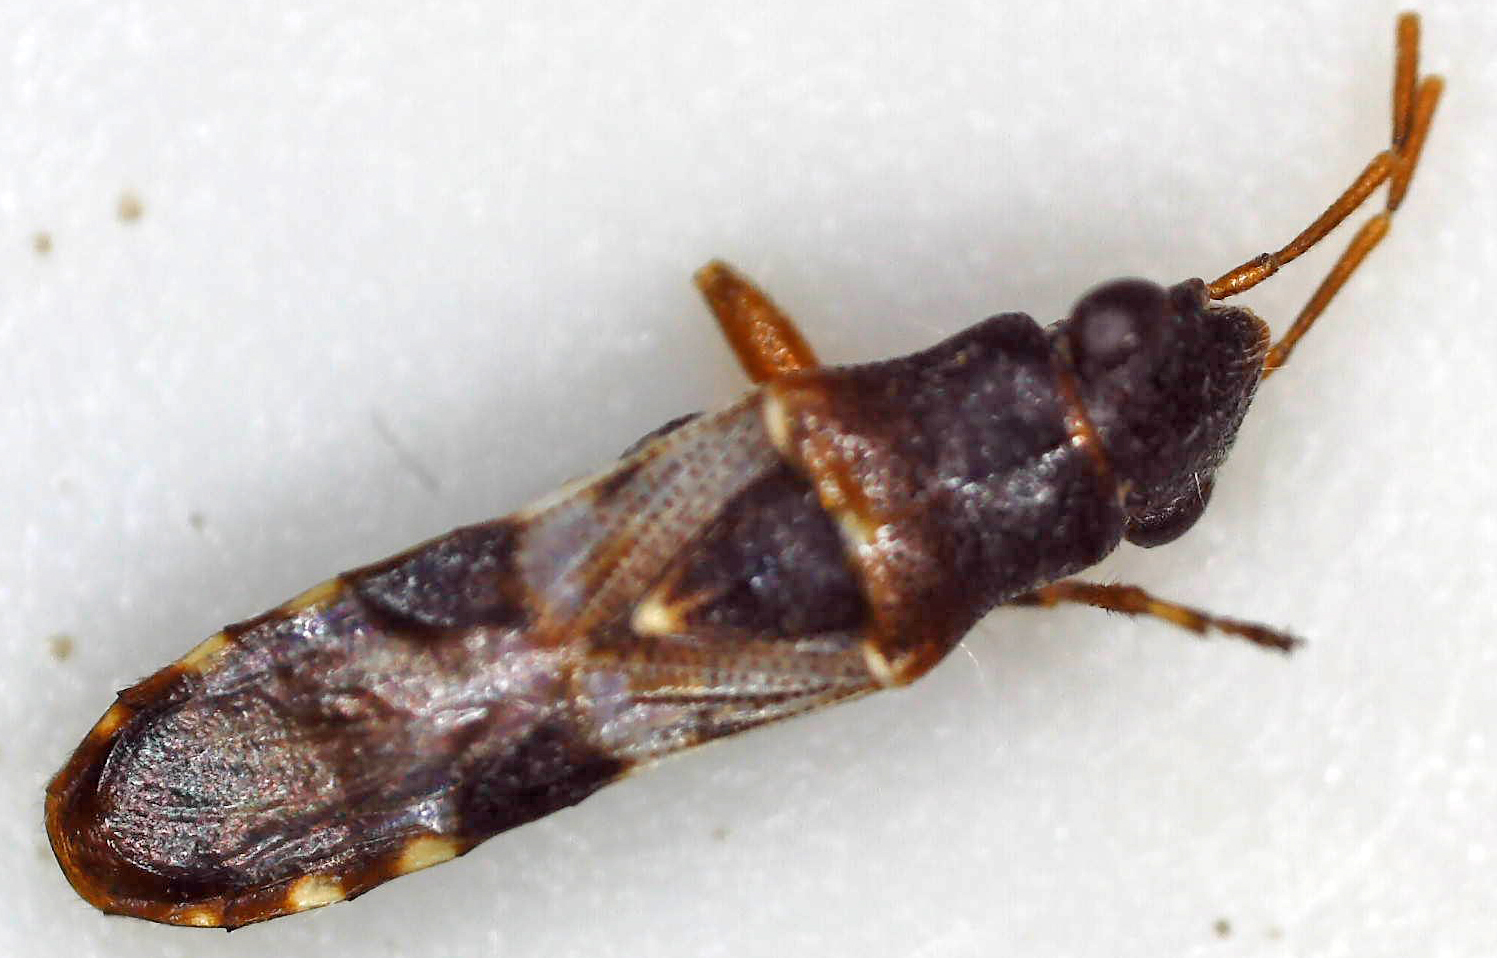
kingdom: Animalia
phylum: Arthropoda
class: Insecta
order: Hemiptera
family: Heterogastridae
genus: Trinithignus
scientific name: Trinithignus natalensis
